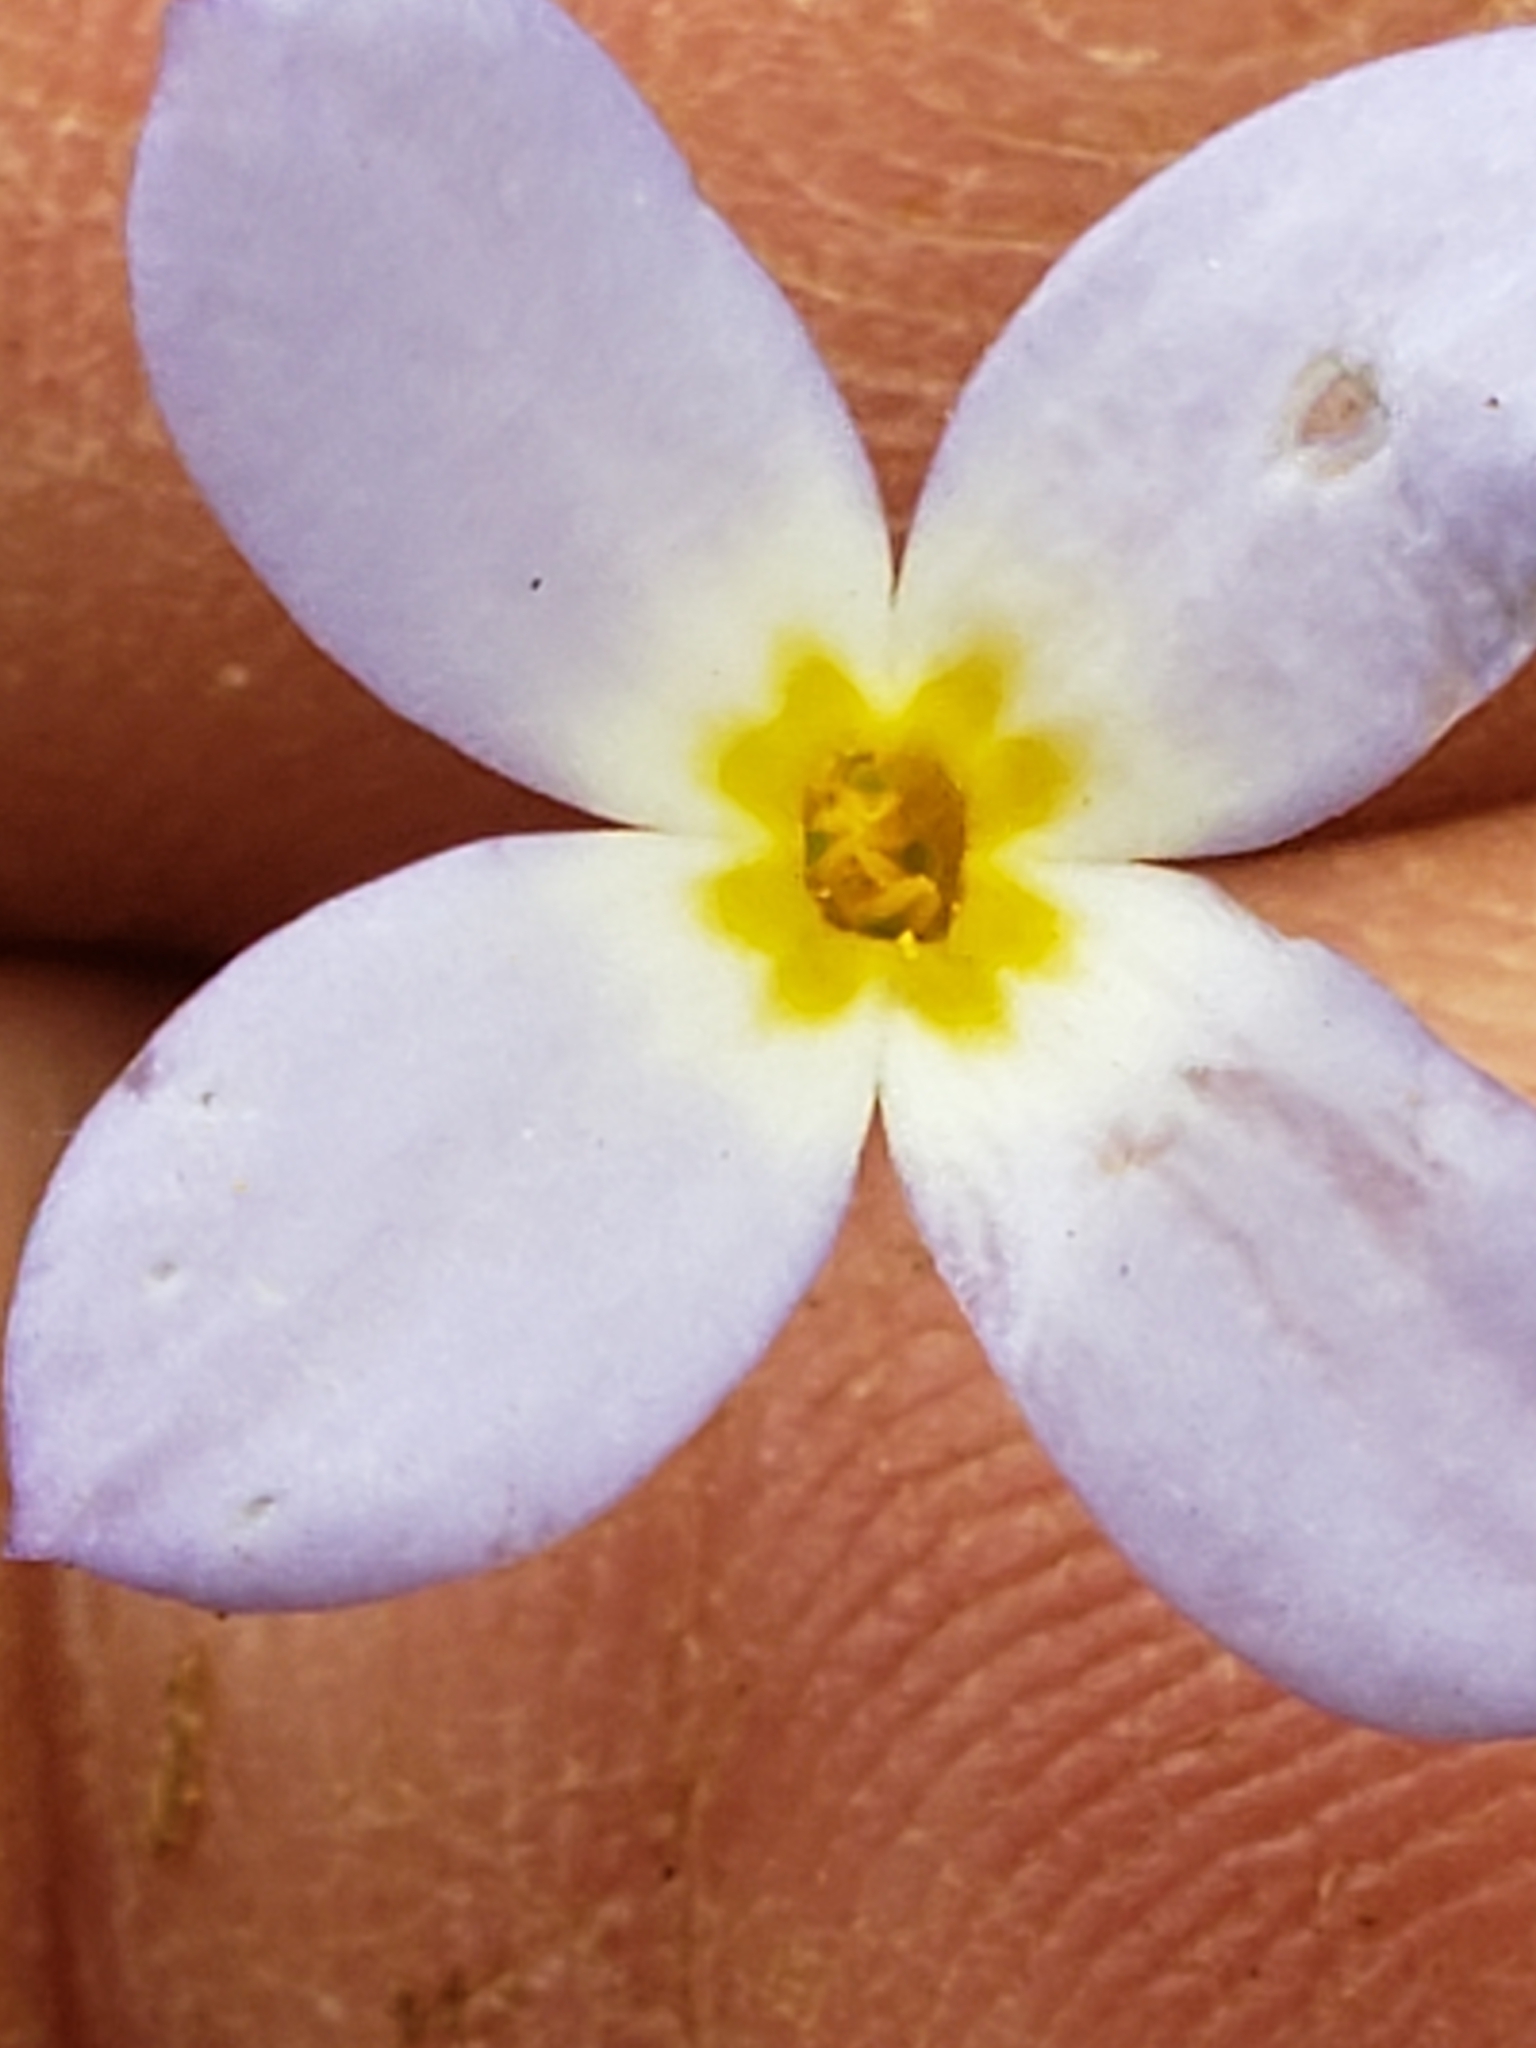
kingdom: Plantae
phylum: Tracheophyta
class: Magnoliopsida
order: Gentianales
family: Rubiaceae
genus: Houstonia
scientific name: Houstonia caerulea
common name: Bluets
